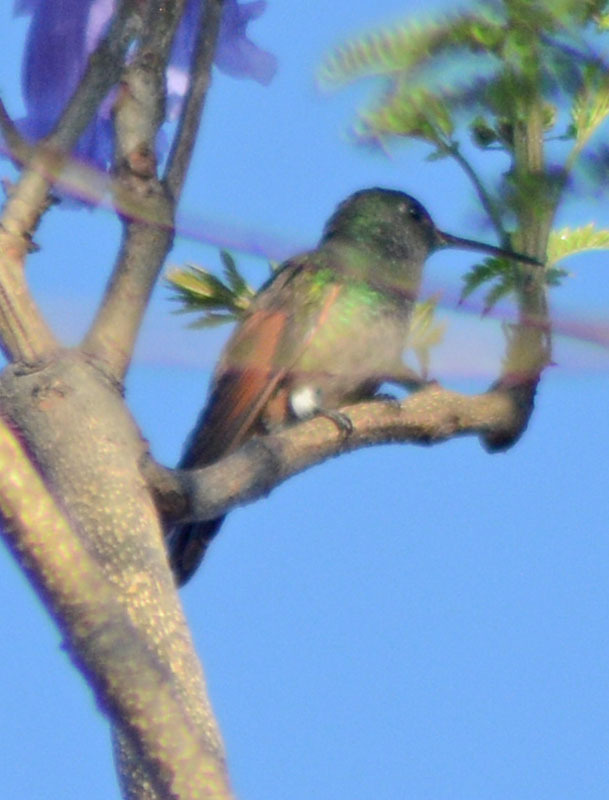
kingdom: Animalia
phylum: Chordata
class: Aves
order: Apodiformes
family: Trochilidae
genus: Saucerottia
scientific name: Saucerottia beryllina
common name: Berylline hummingbird
